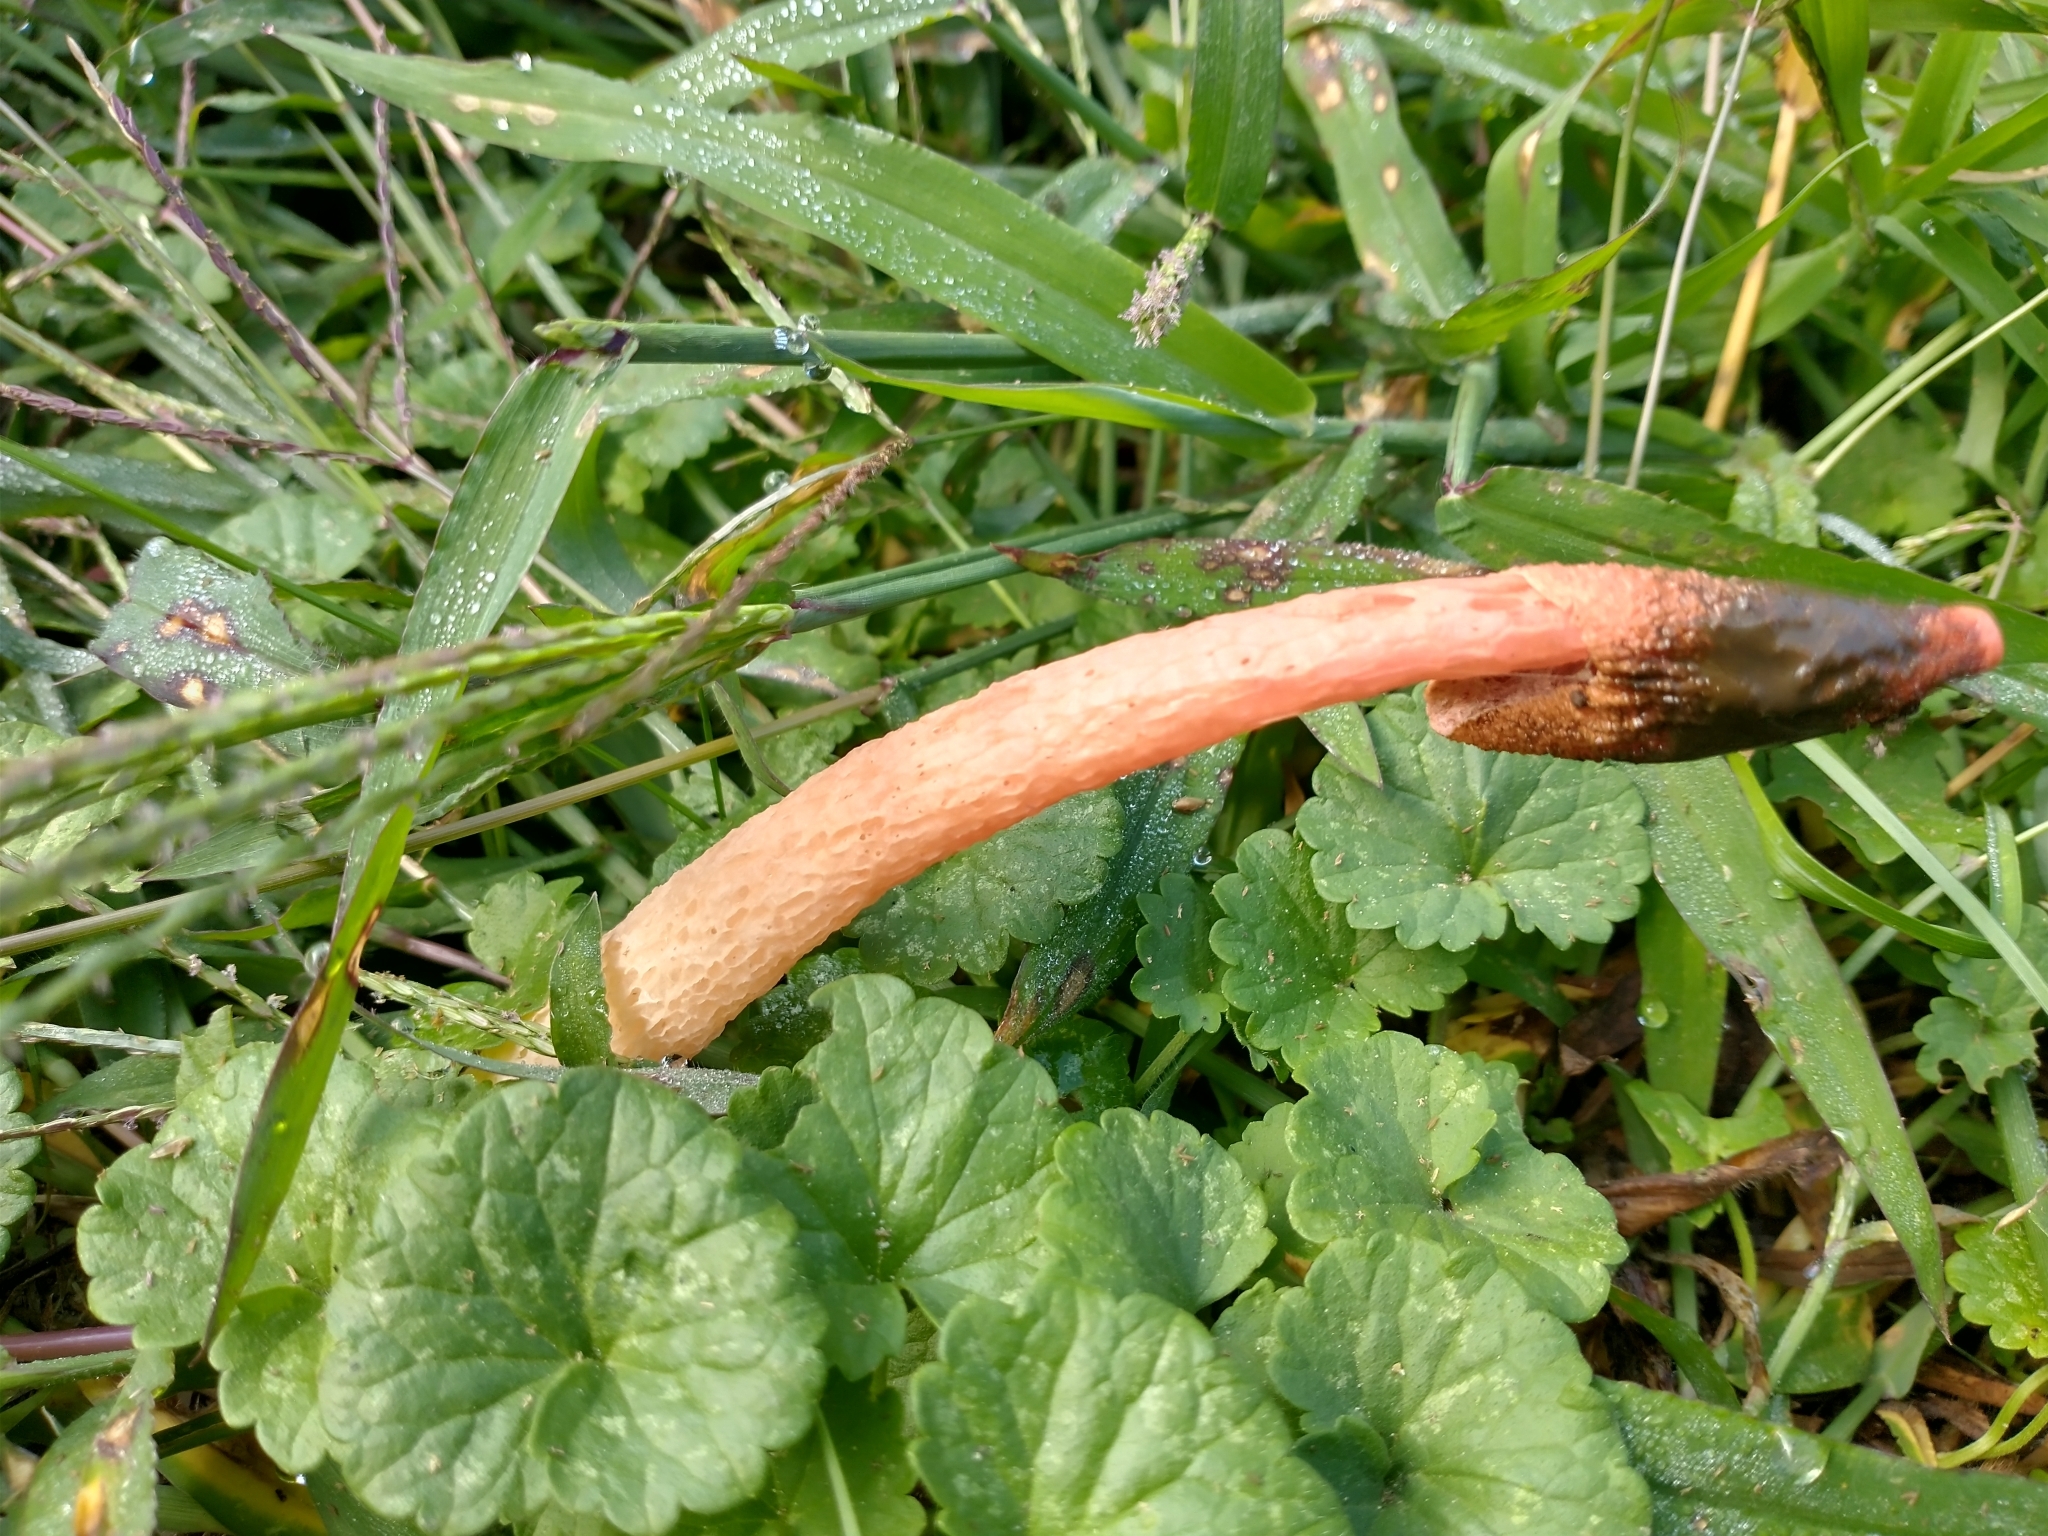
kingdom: Fungi
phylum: Basidiomycota
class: Agaricomycetes
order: Phallales
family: Phallaceae
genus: Phallus
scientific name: Phallus rugulosus
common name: Wrinkly stinkhorn
